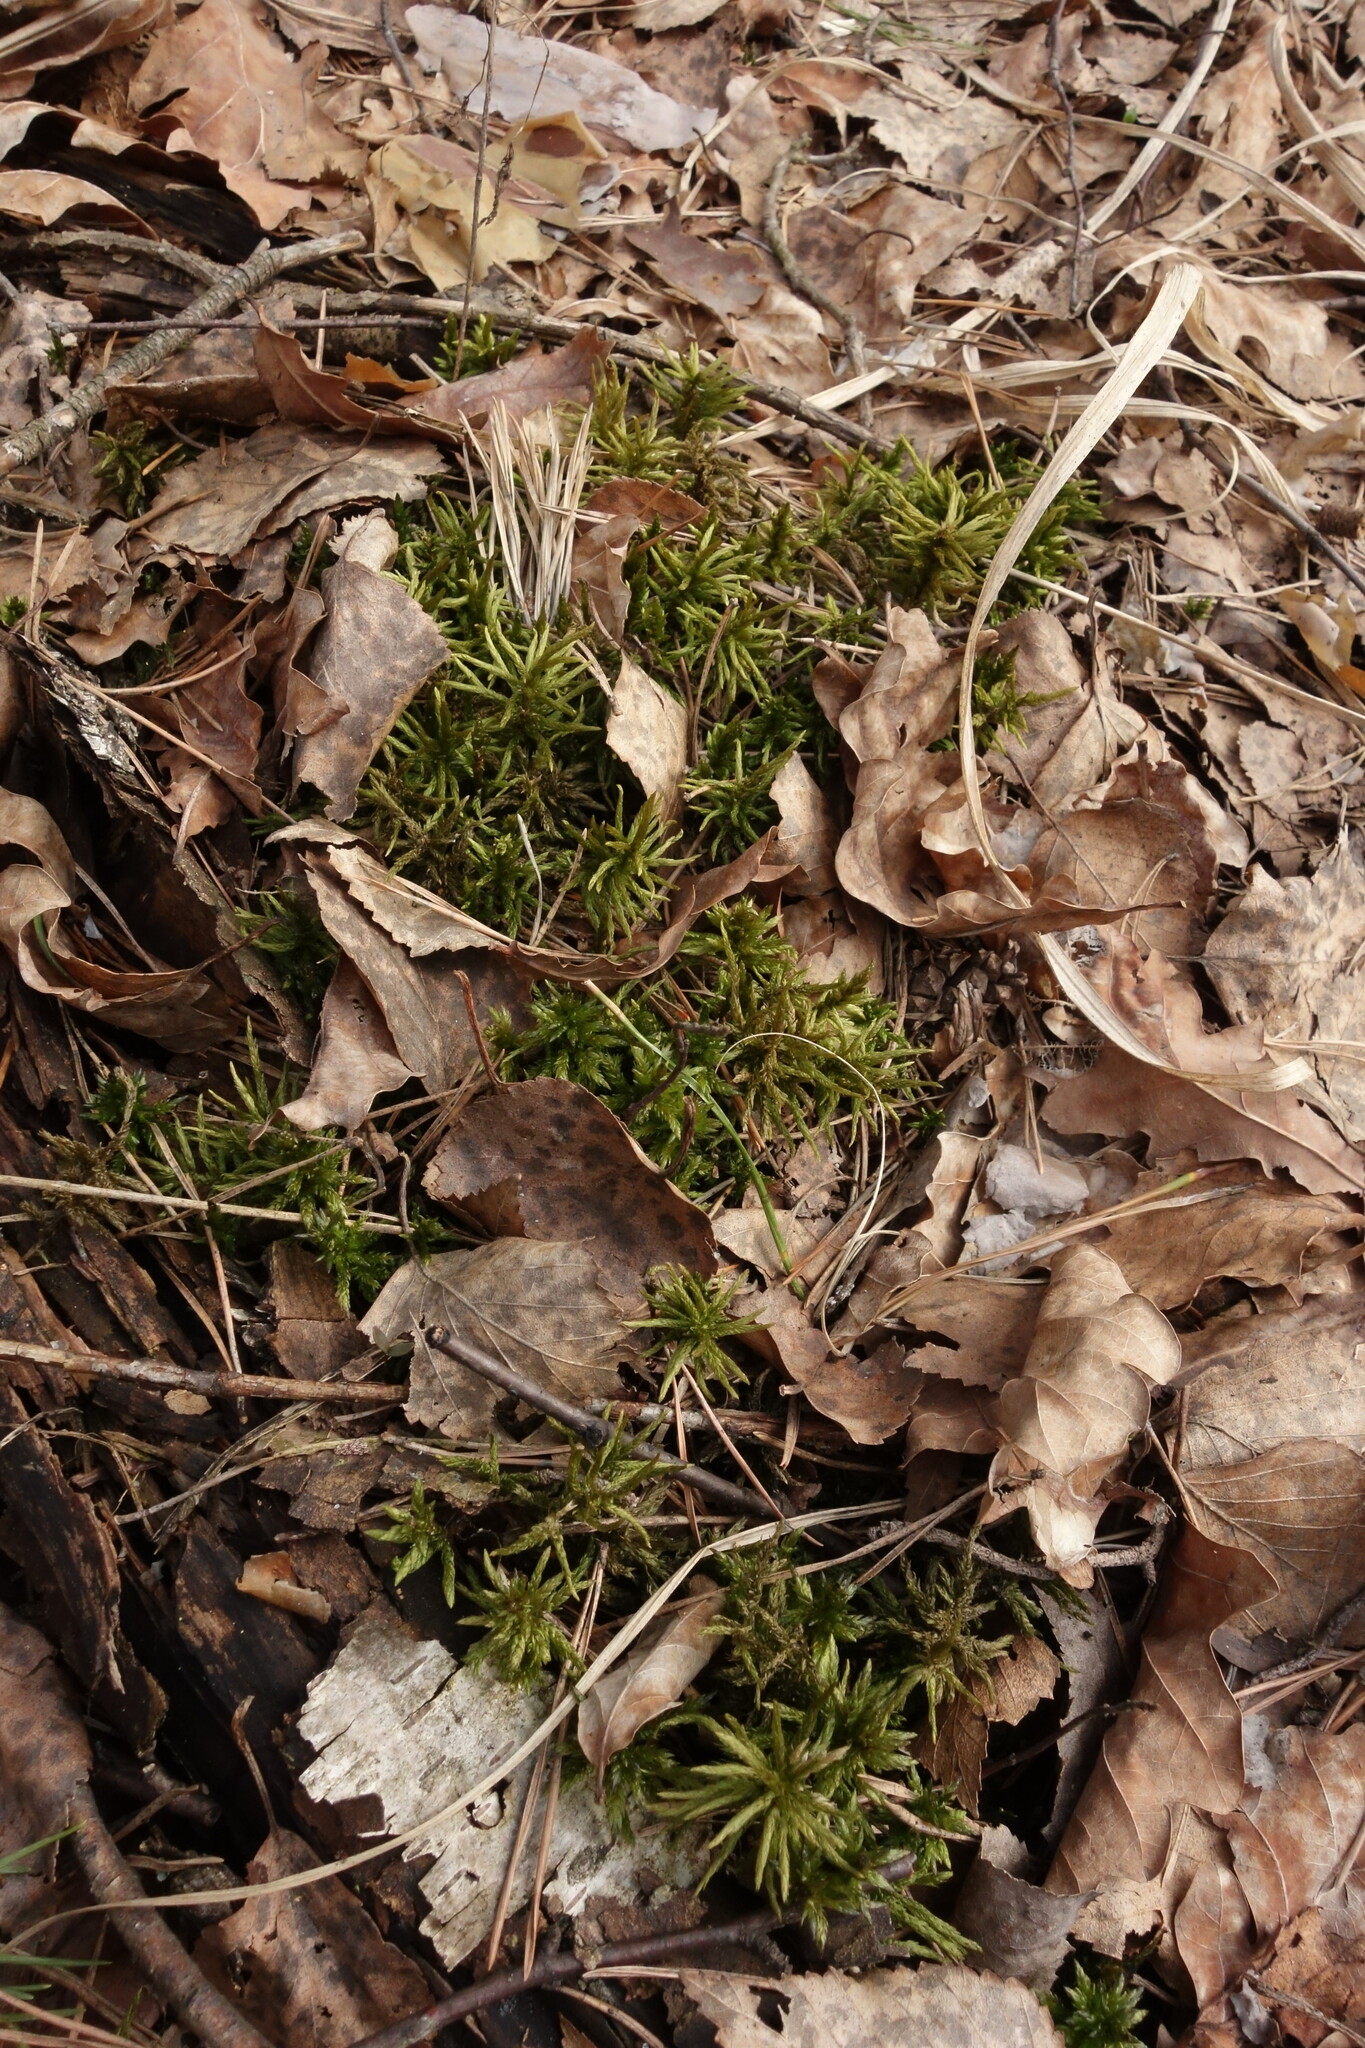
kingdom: Plantae
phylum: Bryophyta
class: Bryopsida
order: Hypnales
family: Climaciaceae
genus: Climacium
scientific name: Climacium dendroides
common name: Northern tree moss
